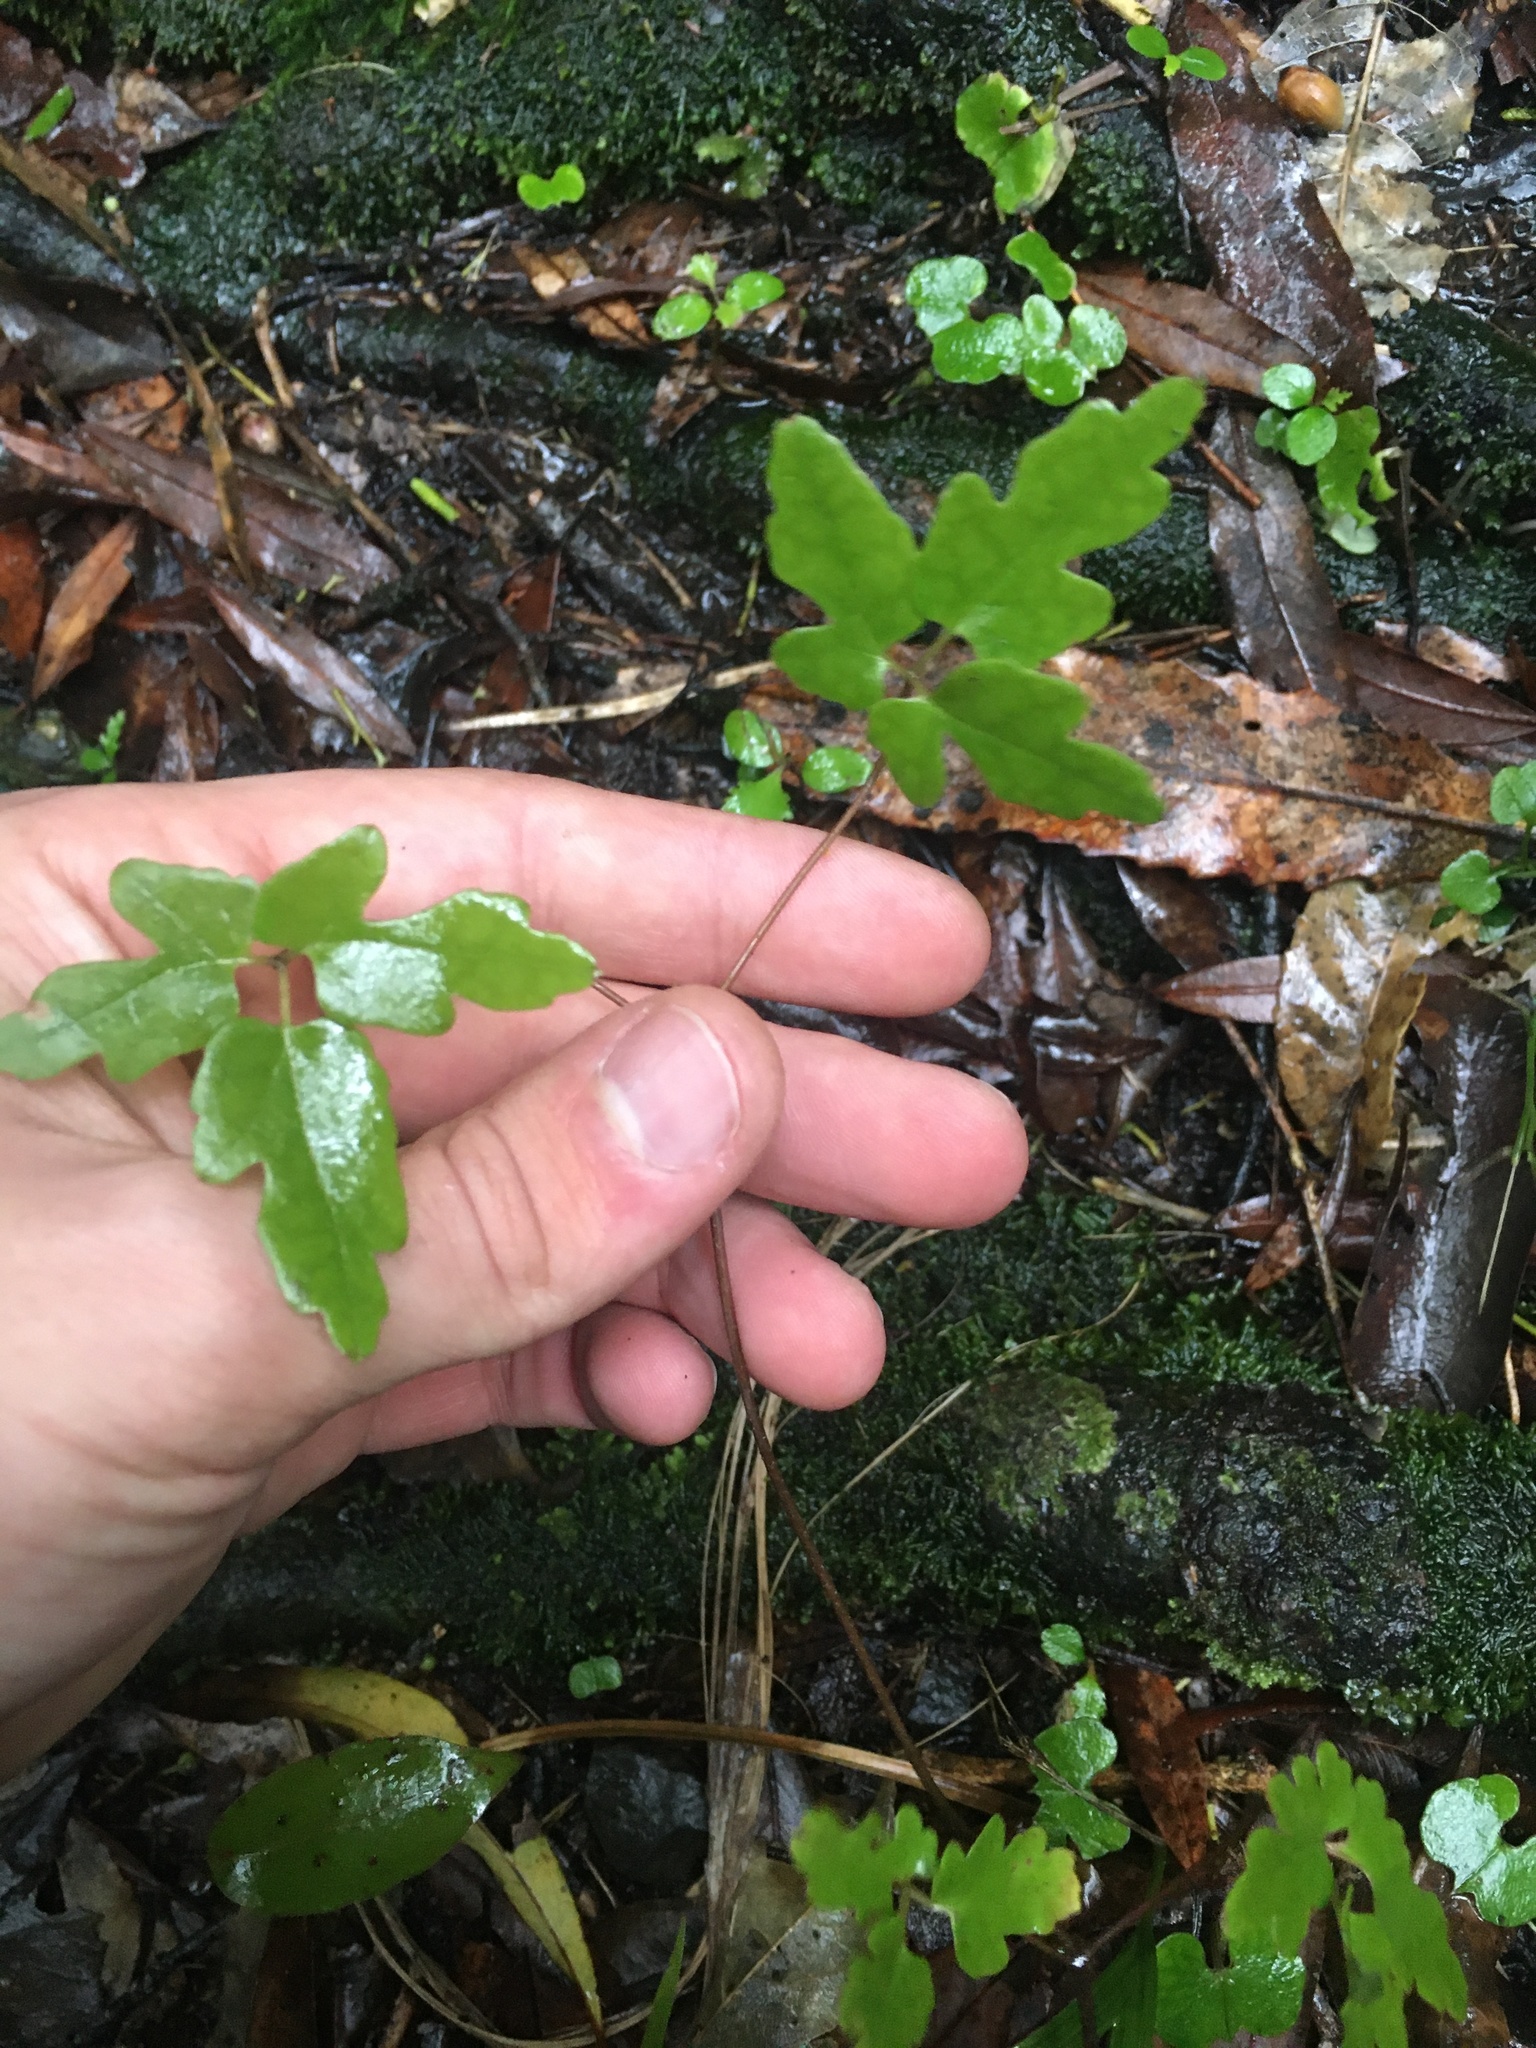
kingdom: Plantae
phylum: Tracheophyta
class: Magnoliopsida
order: Ranunculales
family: Ranunculaceae
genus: Clematis
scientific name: Clematis paniculata
